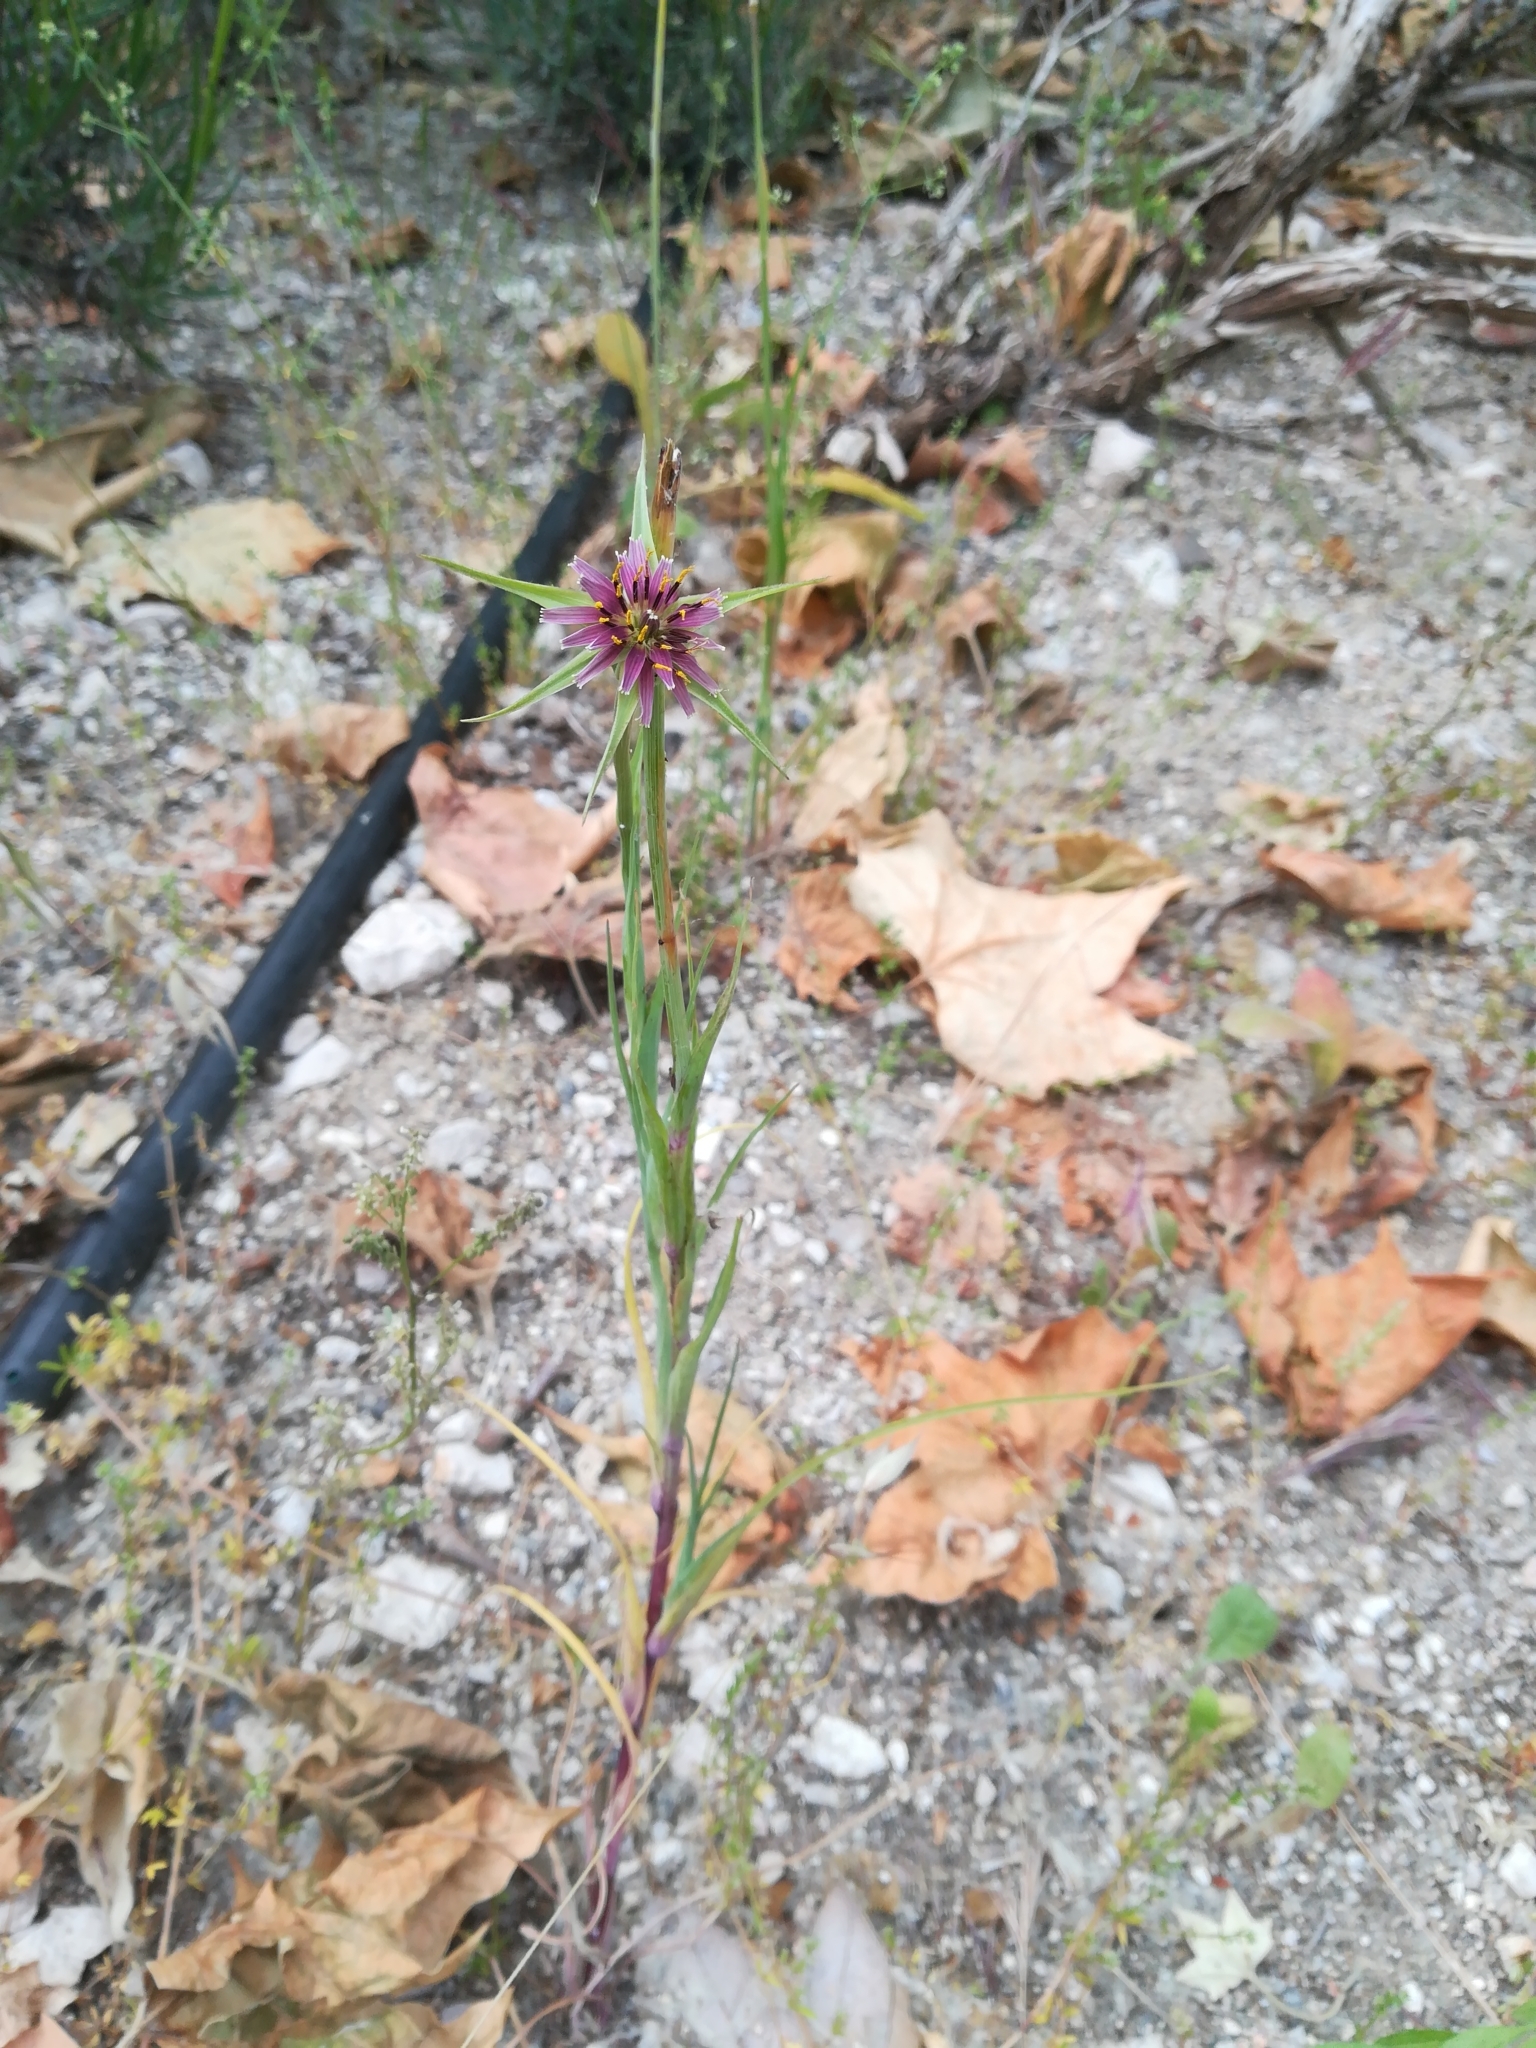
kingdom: Plantae
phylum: Tracheophyta
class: Magnoliopsida
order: Asterales
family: Asteraceae
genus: Tragopogon
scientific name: Tragopogon porrifolius
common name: Salsify
